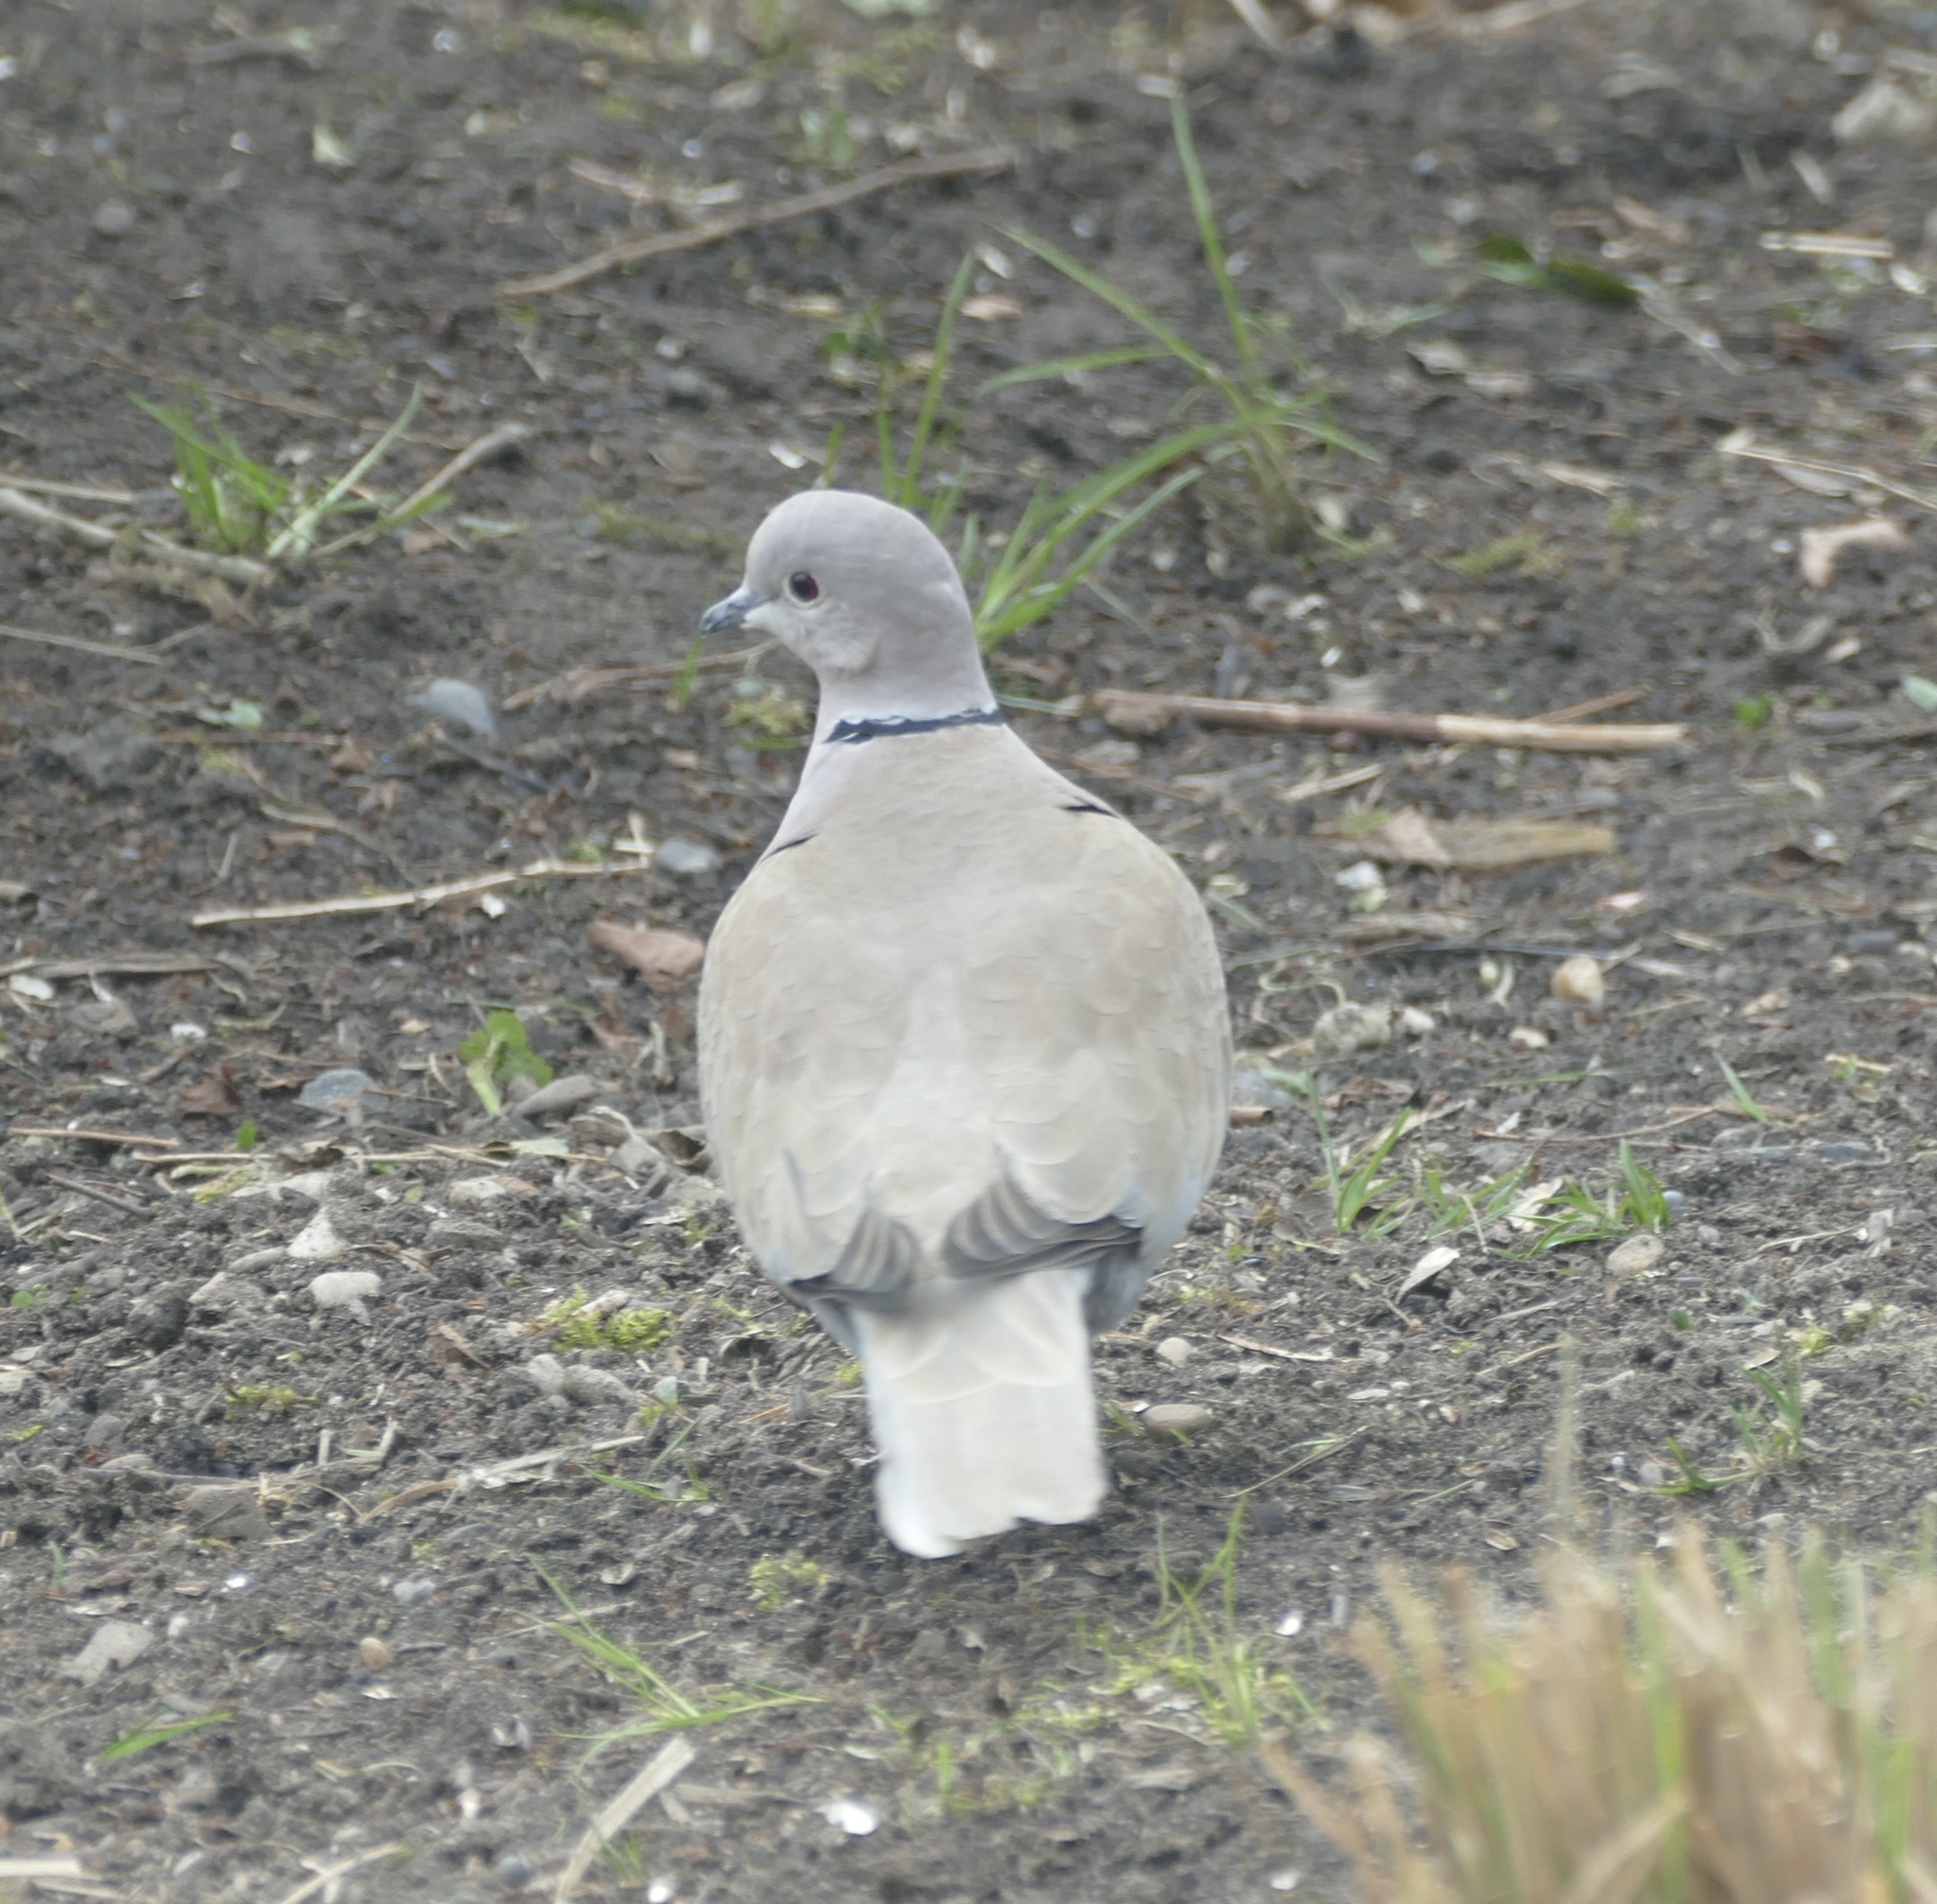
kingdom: Animalia
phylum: Chordata
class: Aves
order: Columbiformes
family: Columbidae
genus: Streptopelia
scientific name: Streptopelia decaocto
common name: Eurasian collared dove
